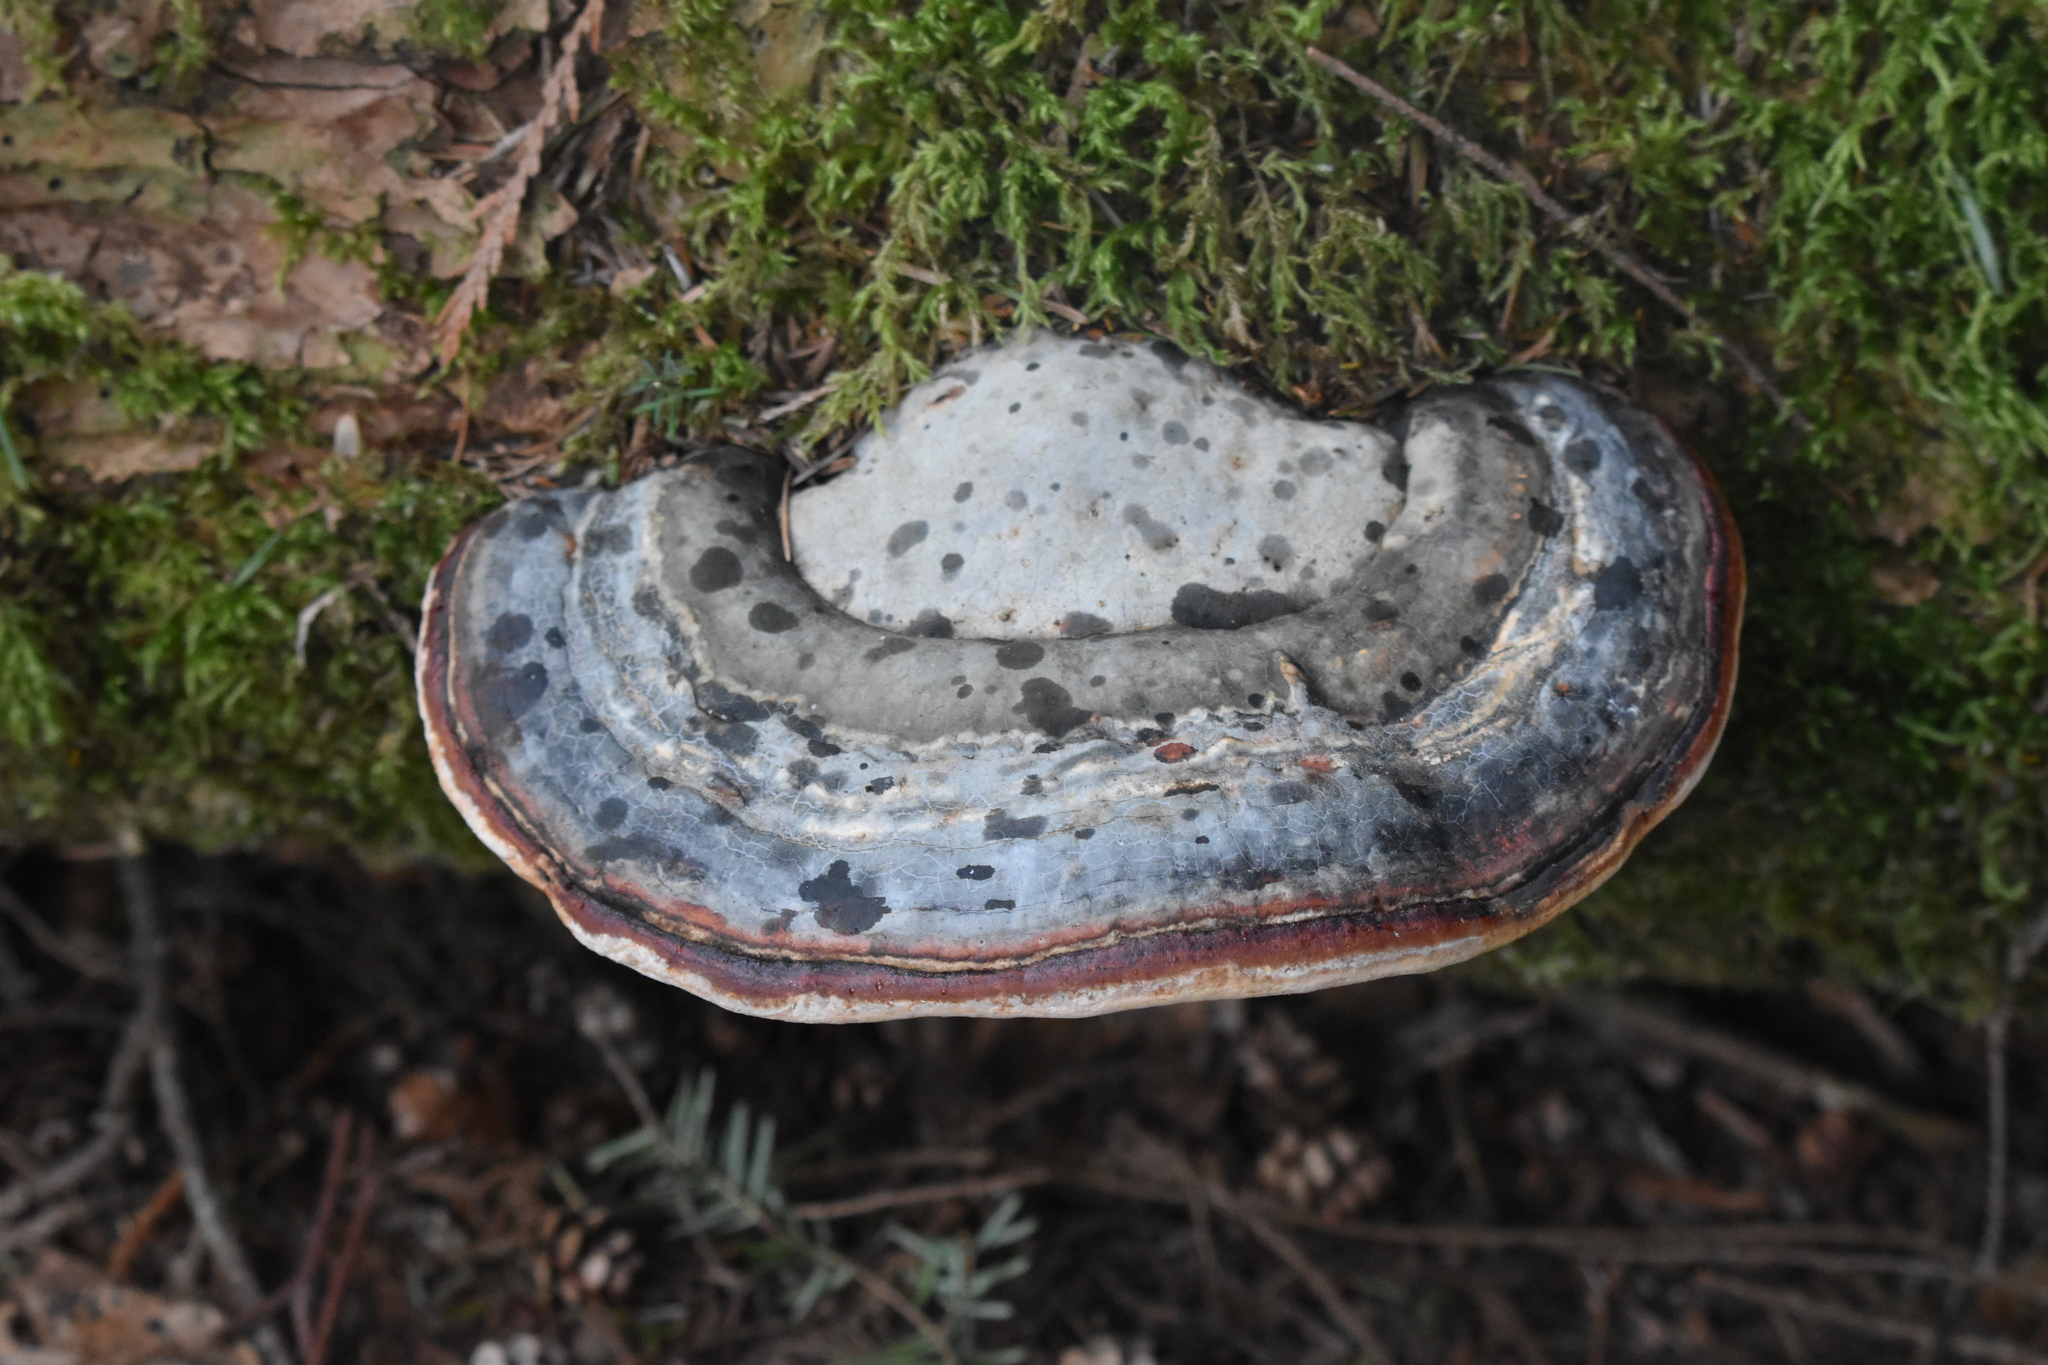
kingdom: Fungi
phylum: Basidiomycota
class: Agaricomycetes
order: Polyporales
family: Fomitopsidaceae
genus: Fomitopsis
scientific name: Fomitopsis mounceae
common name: Northern red belt
